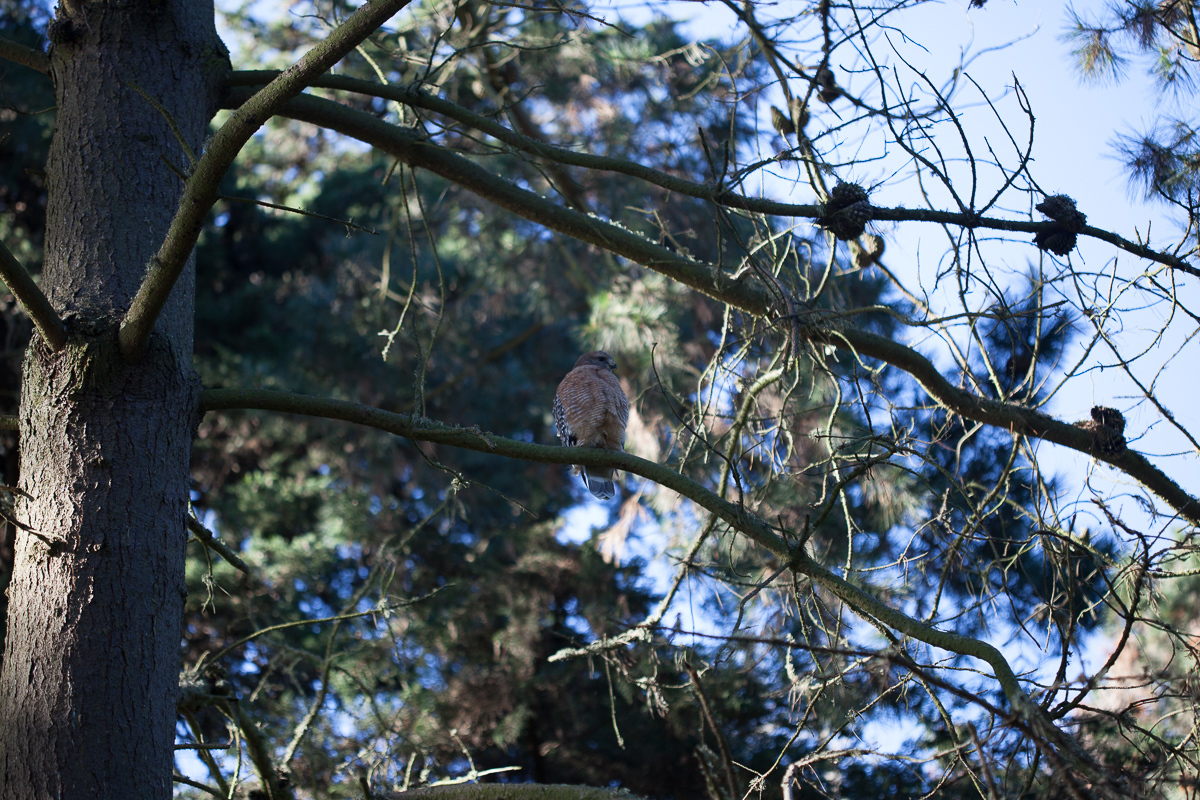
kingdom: Animalia
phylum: Chordata
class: Aves
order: Accipitriformes
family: Accipitridae
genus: Buteo
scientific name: Buteo lineatus
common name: Red-shouldered hawk
